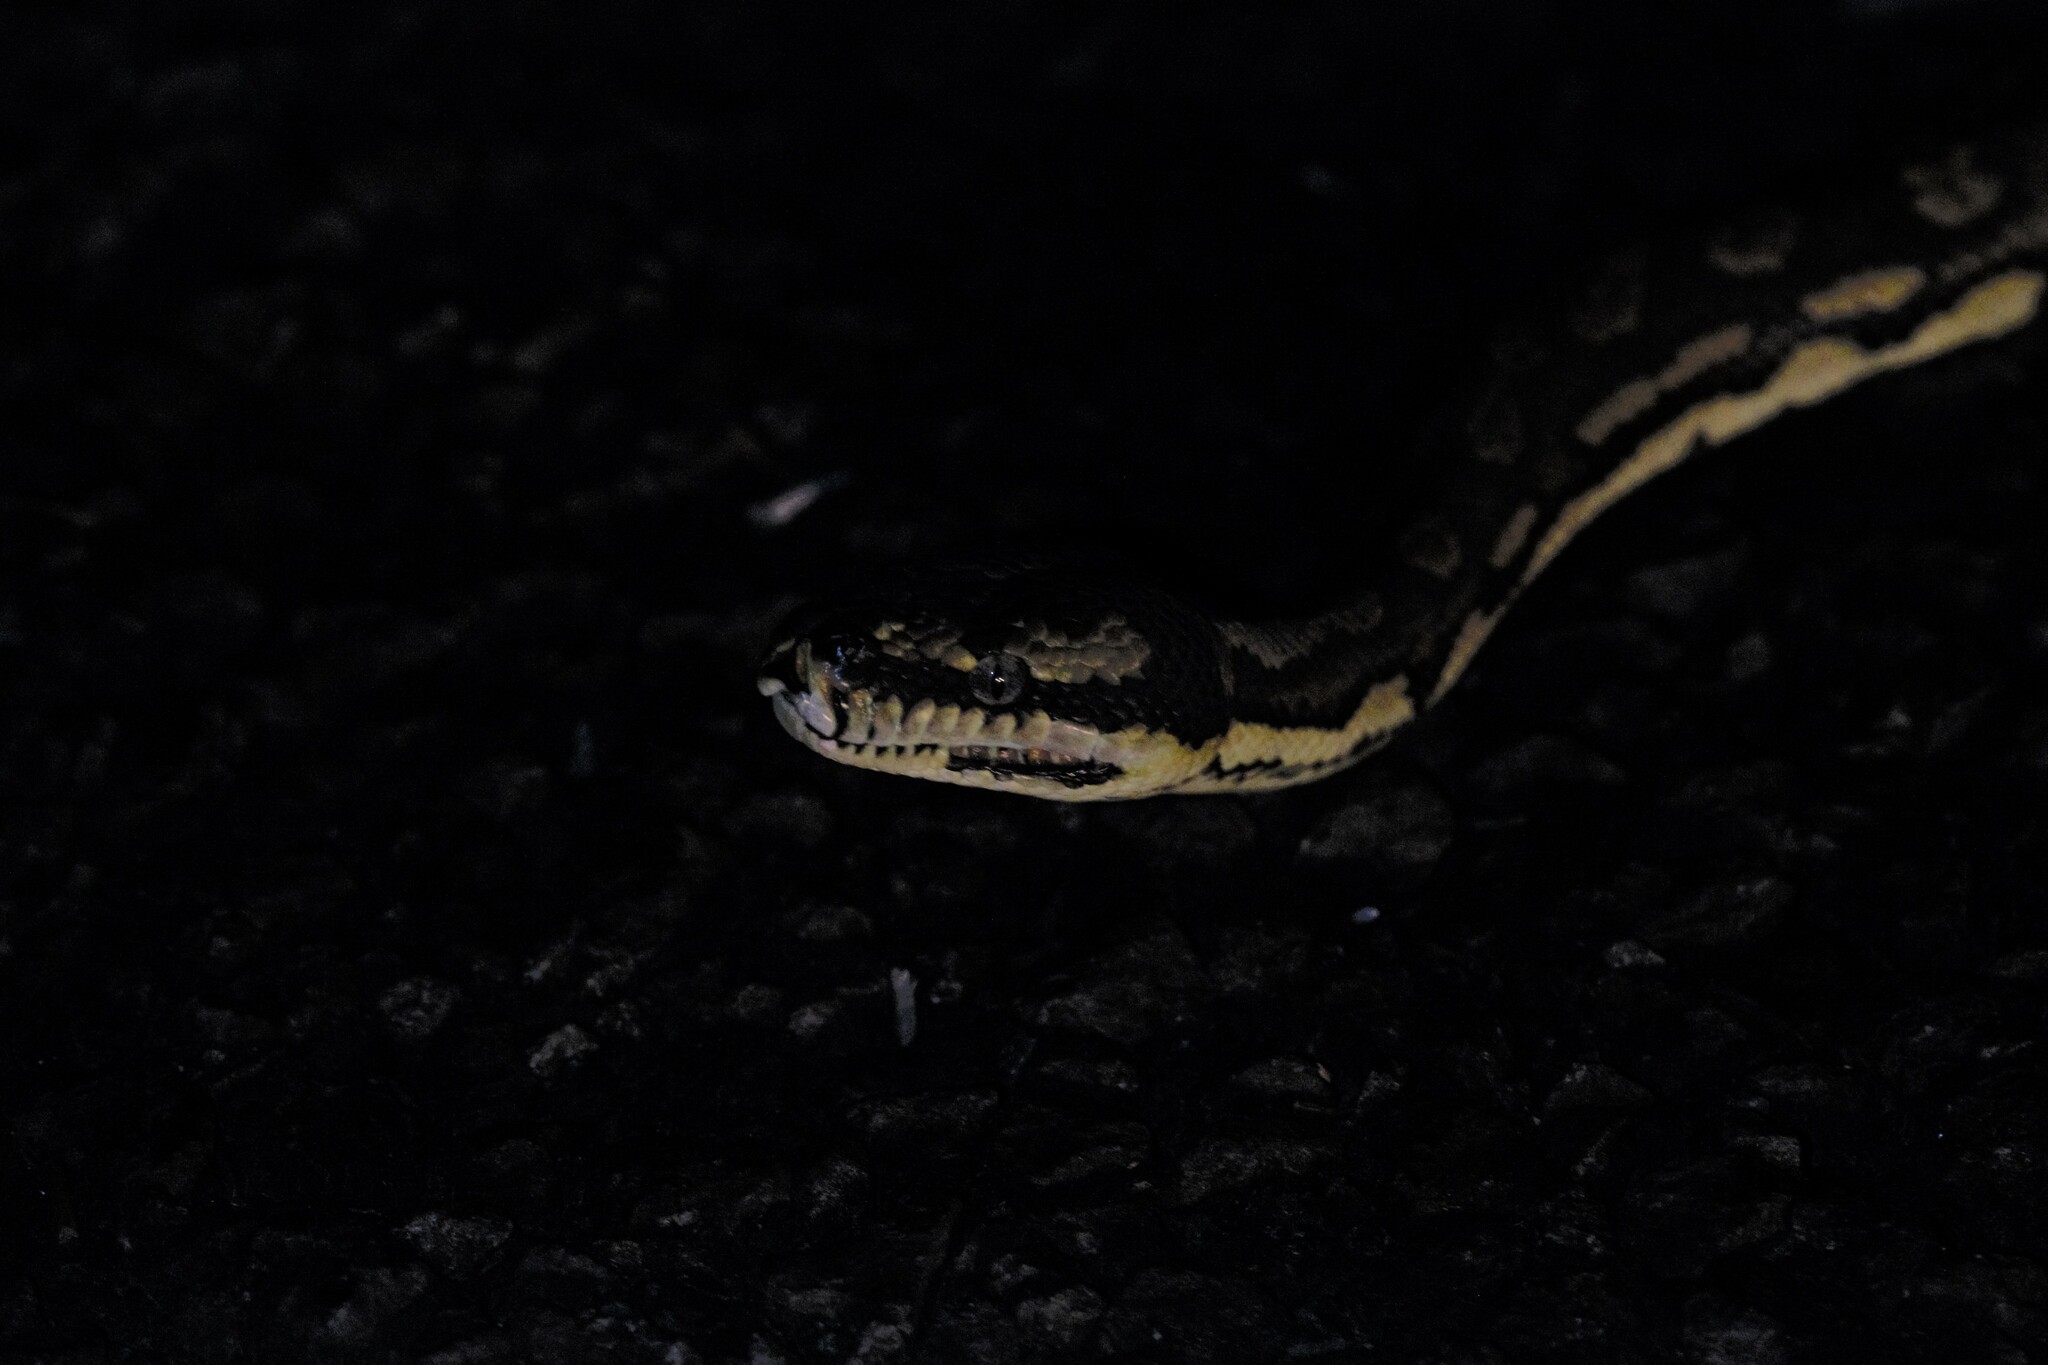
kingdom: Animalia
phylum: Chordata
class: Squamata
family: Pythonidae
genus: Morelia
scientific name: Morelia spilota
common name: Carpet python
